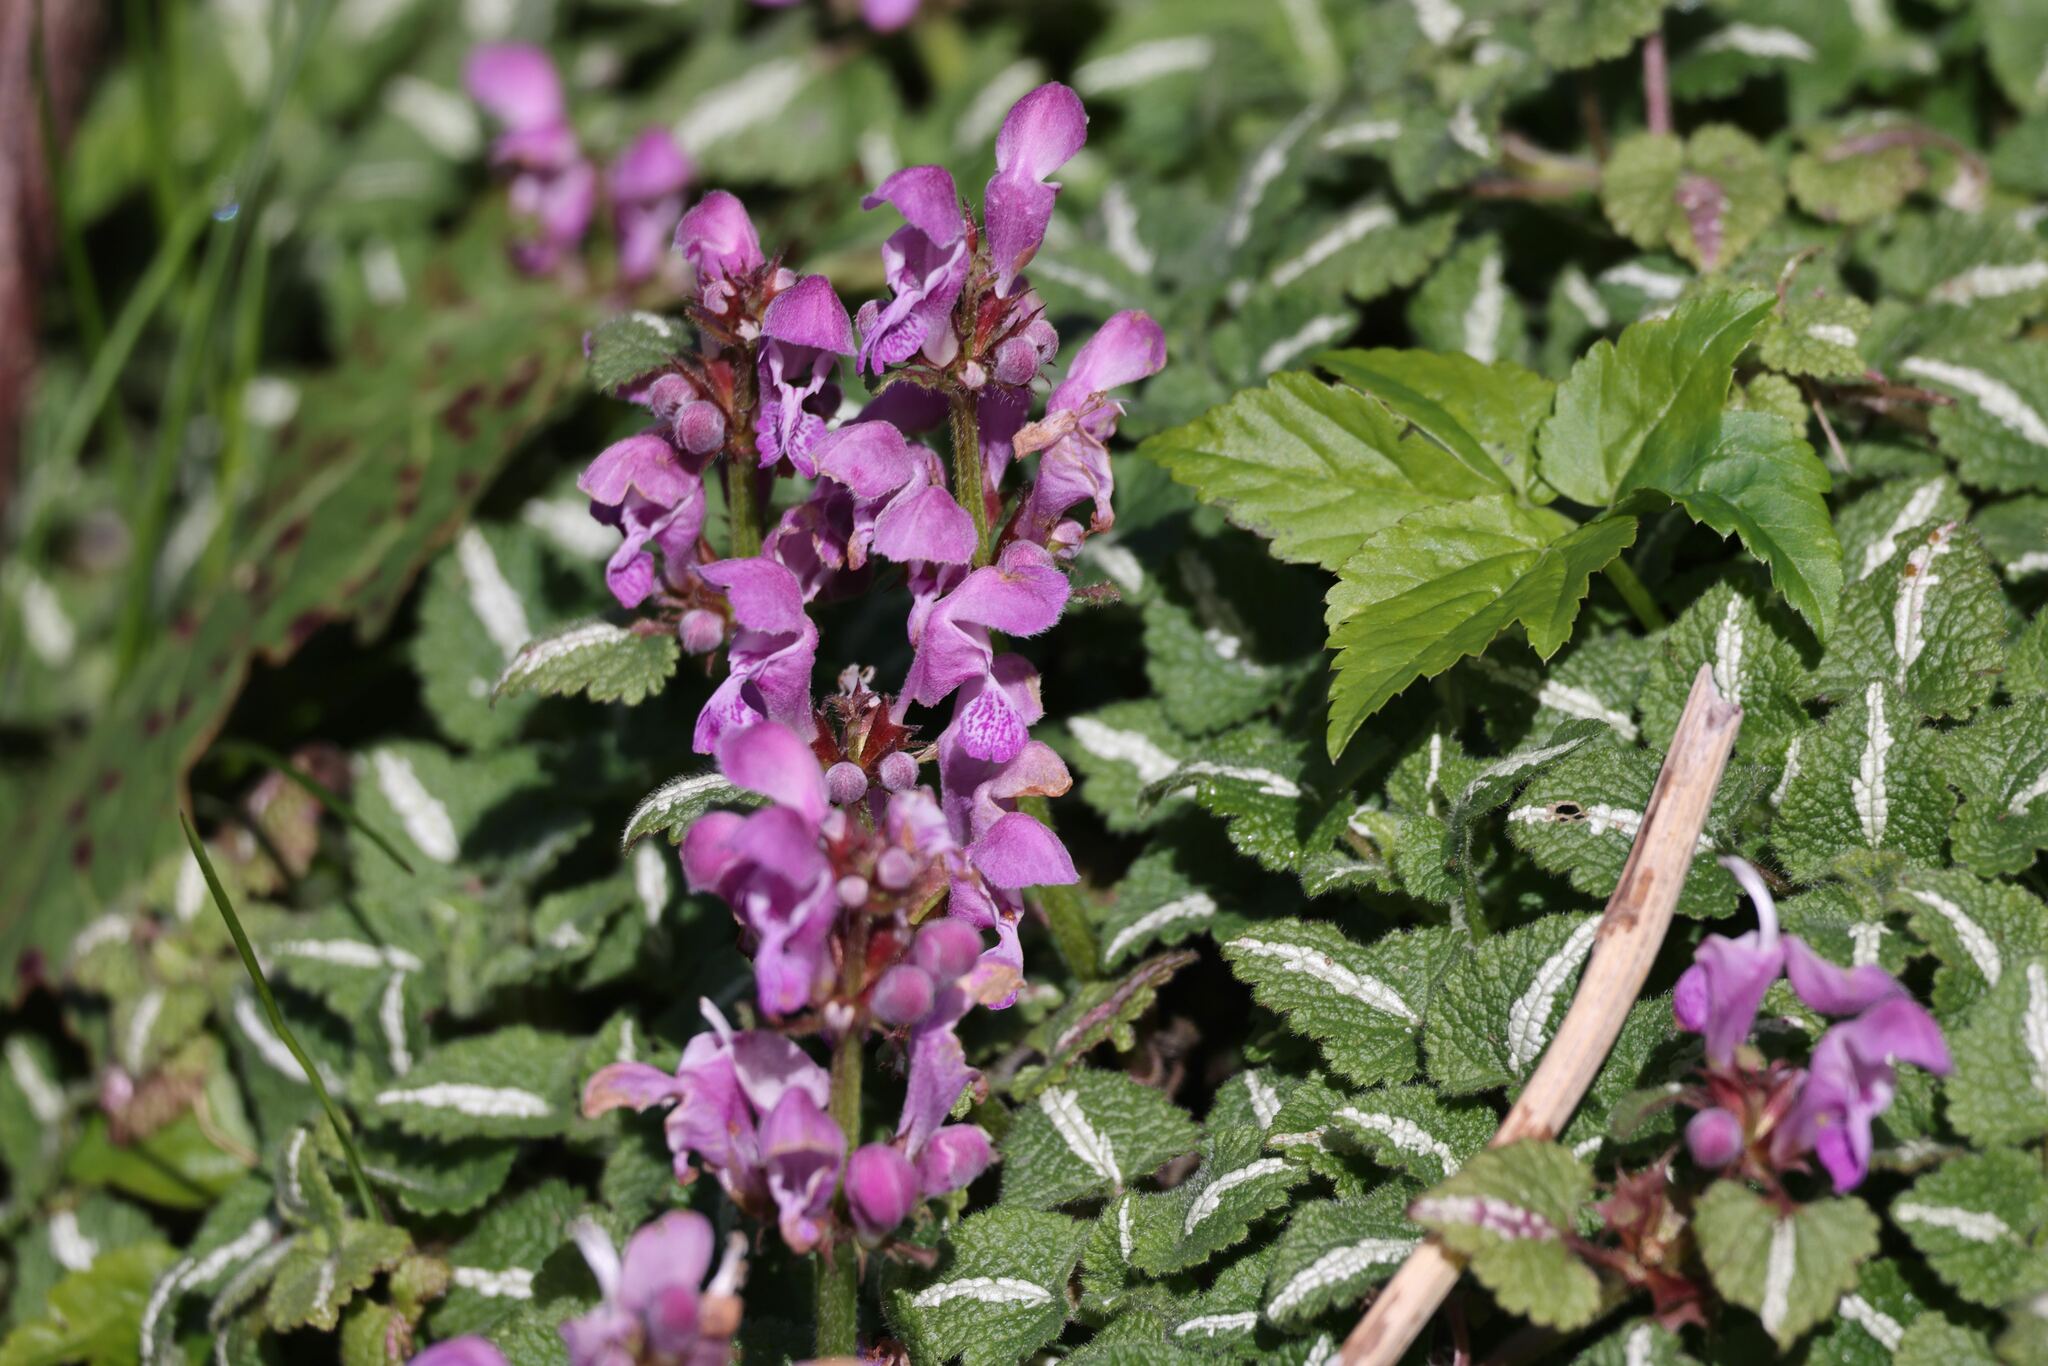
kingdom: Plantae
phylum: Tracheophyta
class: Magnoliopsida
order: Lamiales
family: Lamiaceae
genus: Lamium
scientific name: Lamium maculatum
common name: Spotted dead-nettle
